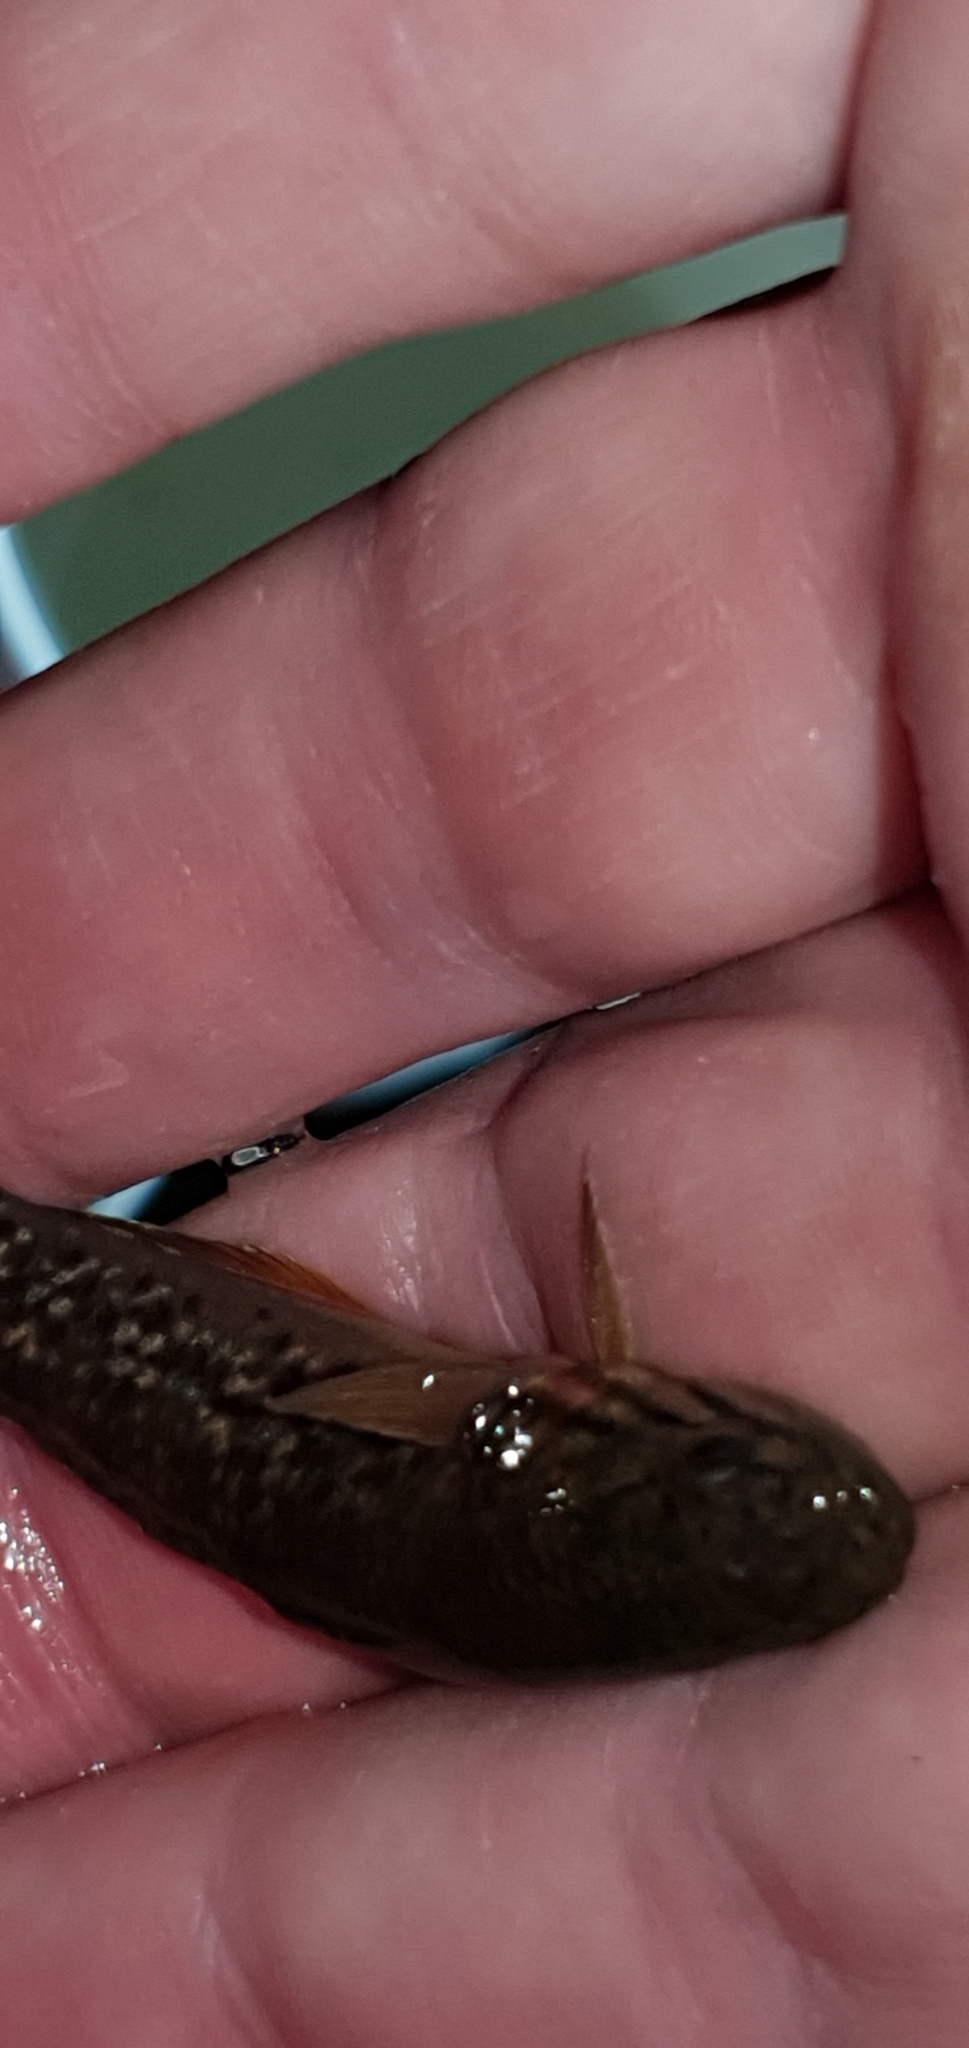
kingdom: Animalia
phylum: Chordata
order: Perciformes
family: Eleotridae
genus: Mogurnda
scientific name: Mogurnda adspersa
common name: Southern purple spotted gudgeon
